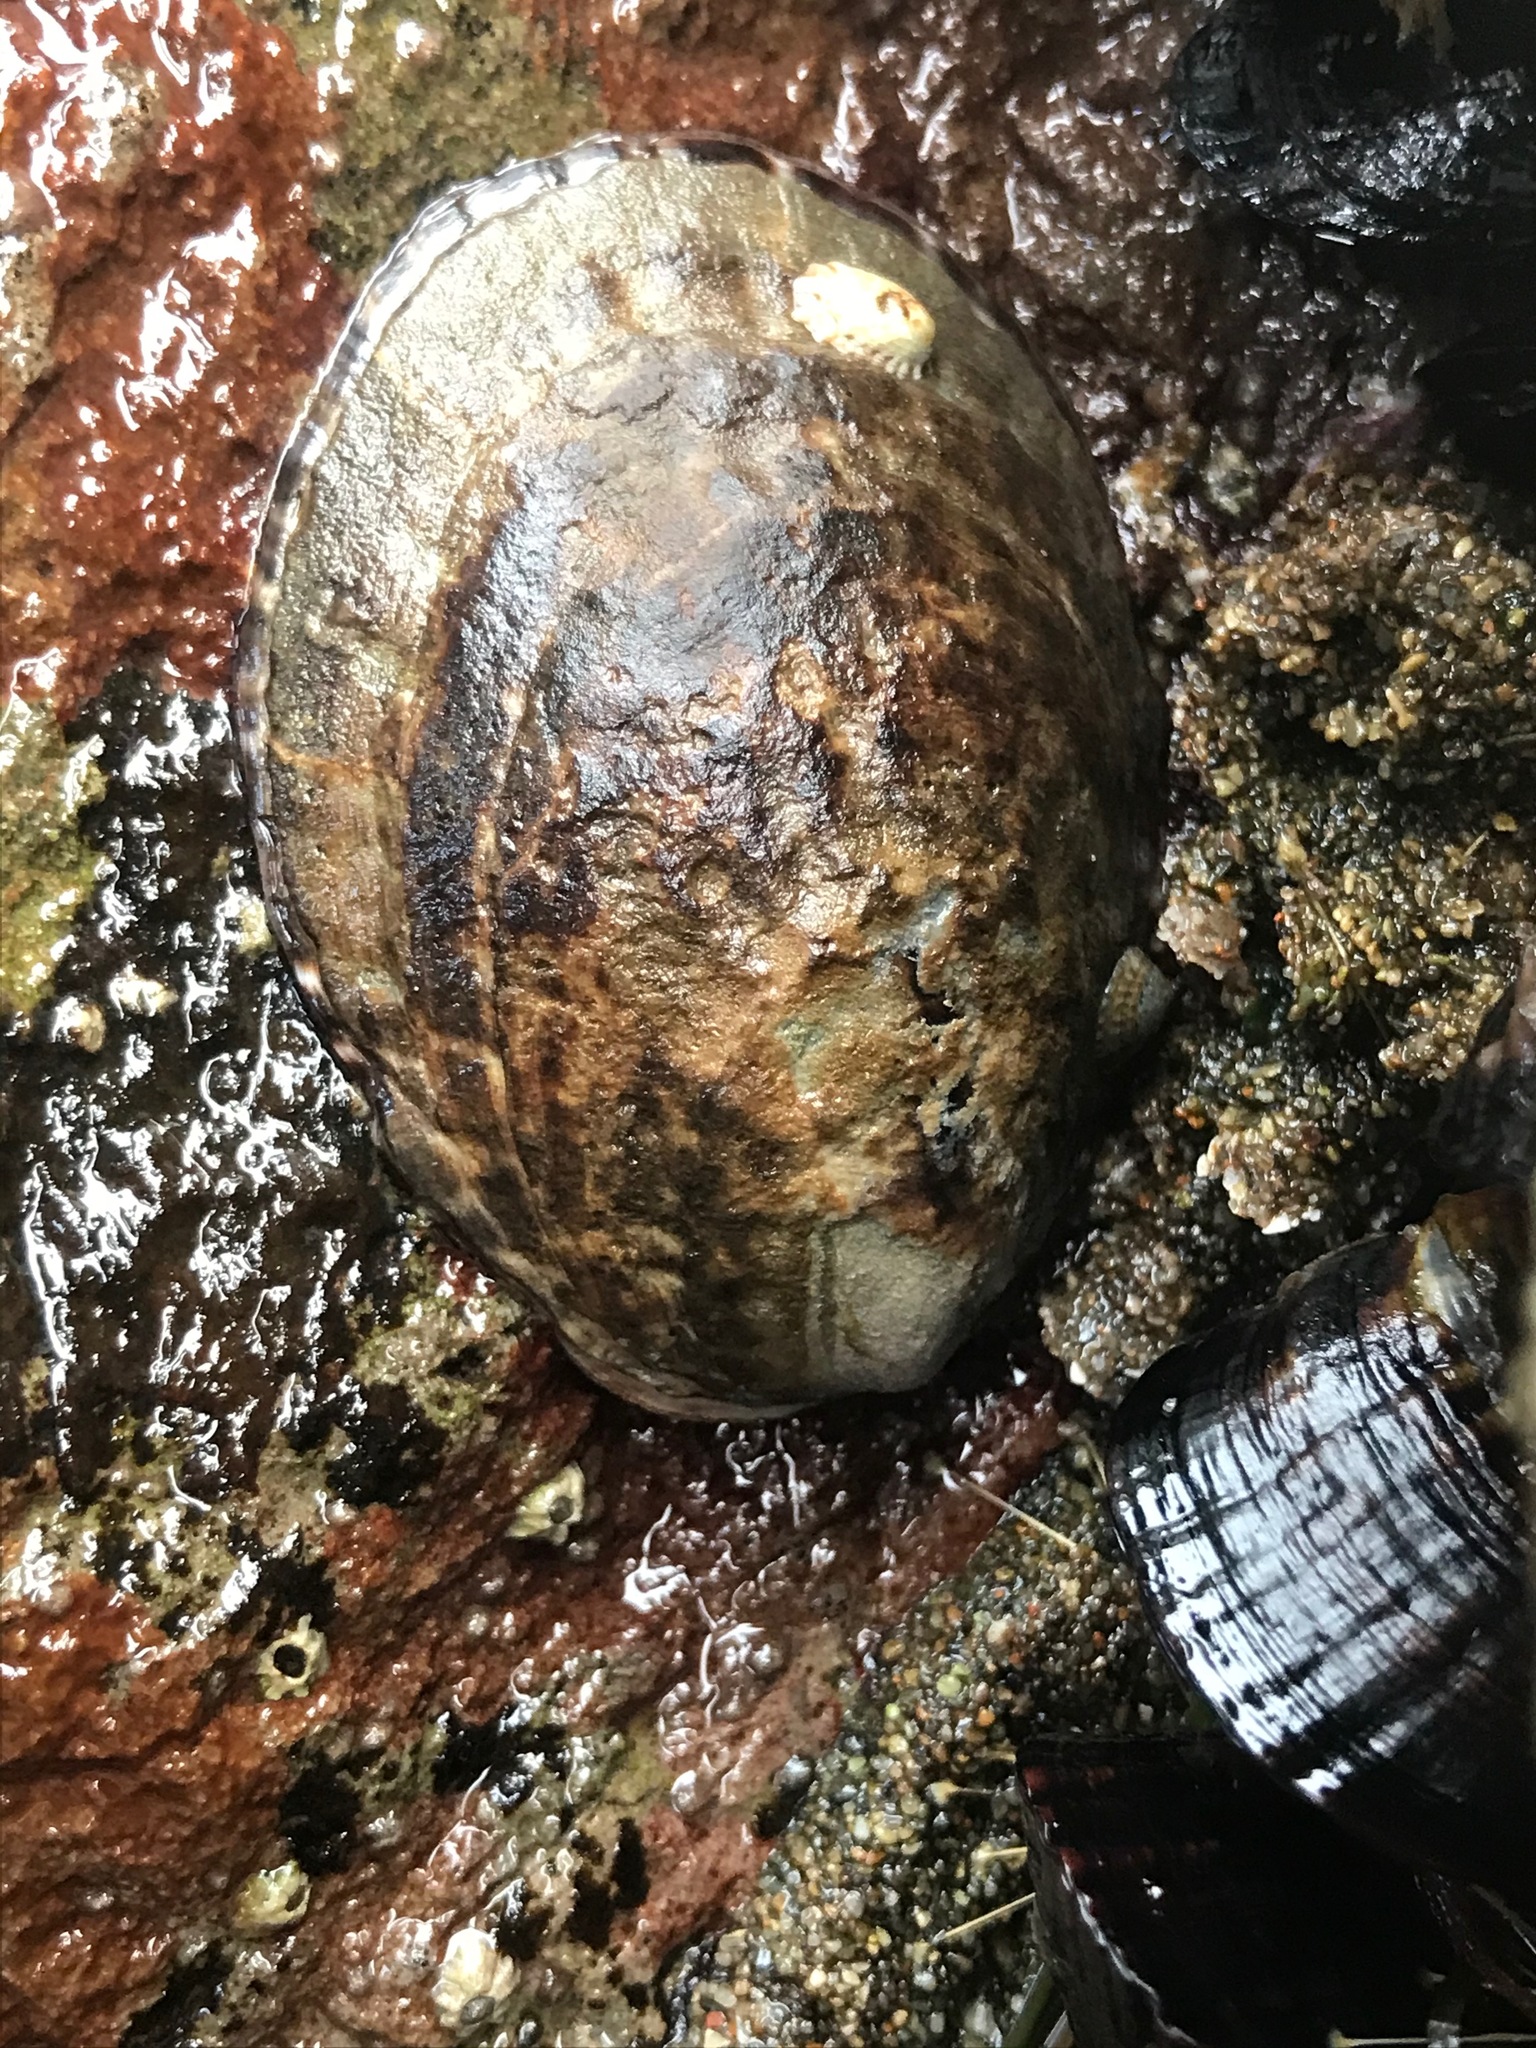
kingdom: Animalia
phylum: Mollusca
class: Gastropoda
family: Lottiidae
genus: Lottia
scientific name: Lottia gigantea
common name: Owl limpet
